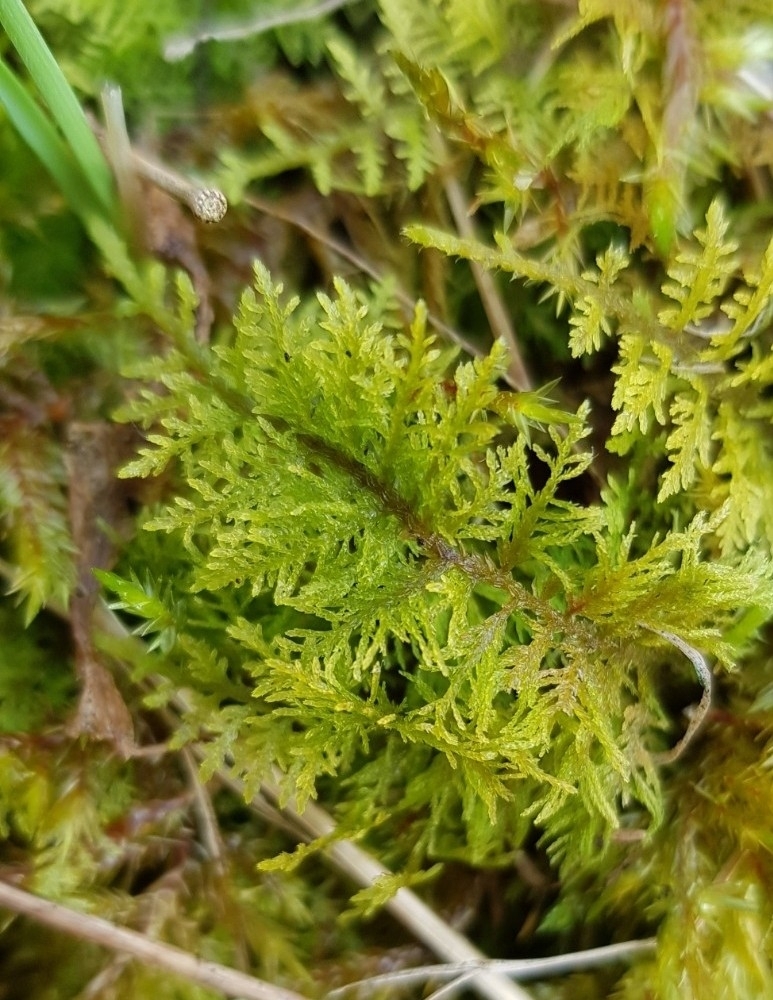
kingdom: Plantae
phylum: Bryophyta
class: Bryopsida
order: Hypnales
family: Thuidiaceae
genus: Thuidium
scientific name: Thuidium tamariscinum
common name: Common tamarisk-moss
